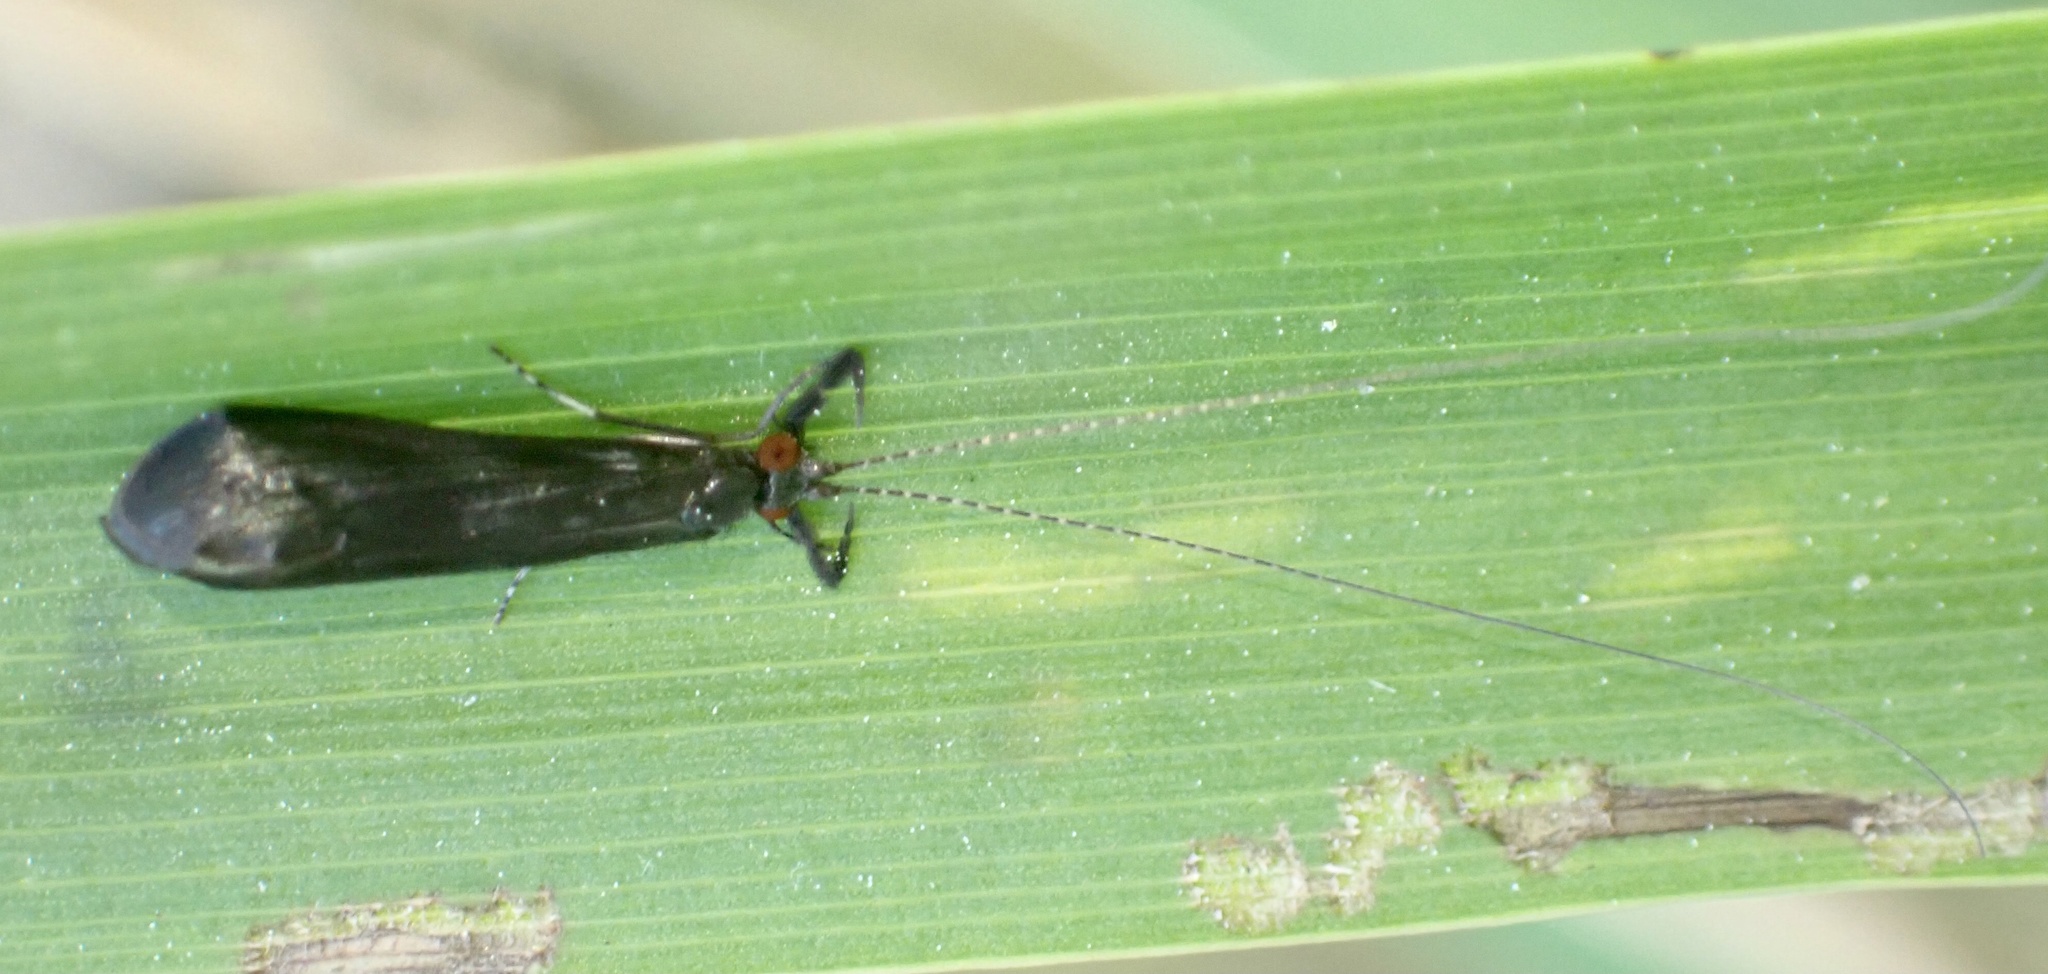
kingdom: Animalia
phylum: Arthropoda
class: Insecta
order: Trichoptera
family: Leptoceridae
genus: Mystacides
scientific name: Mystacides azureus
